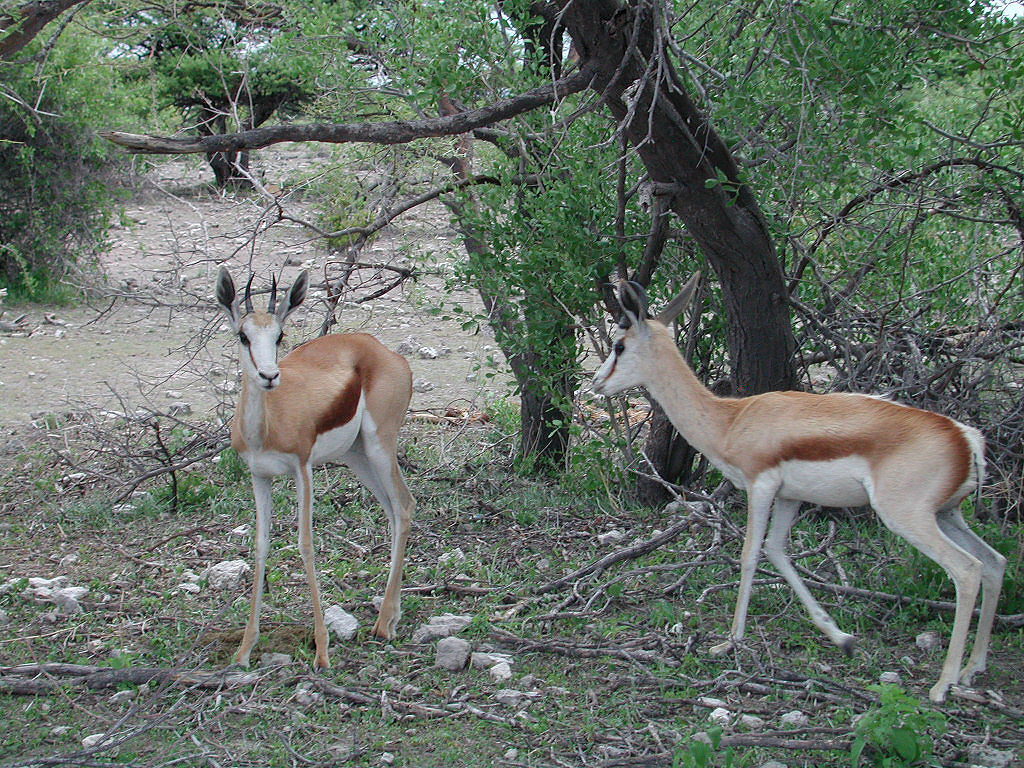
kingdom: Animalia
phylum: Chordata
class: Mammalia
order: Artiodactyla
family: Bovidae
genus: Antidorcas
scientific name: Antidorcas marsupialis
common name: Springbok
